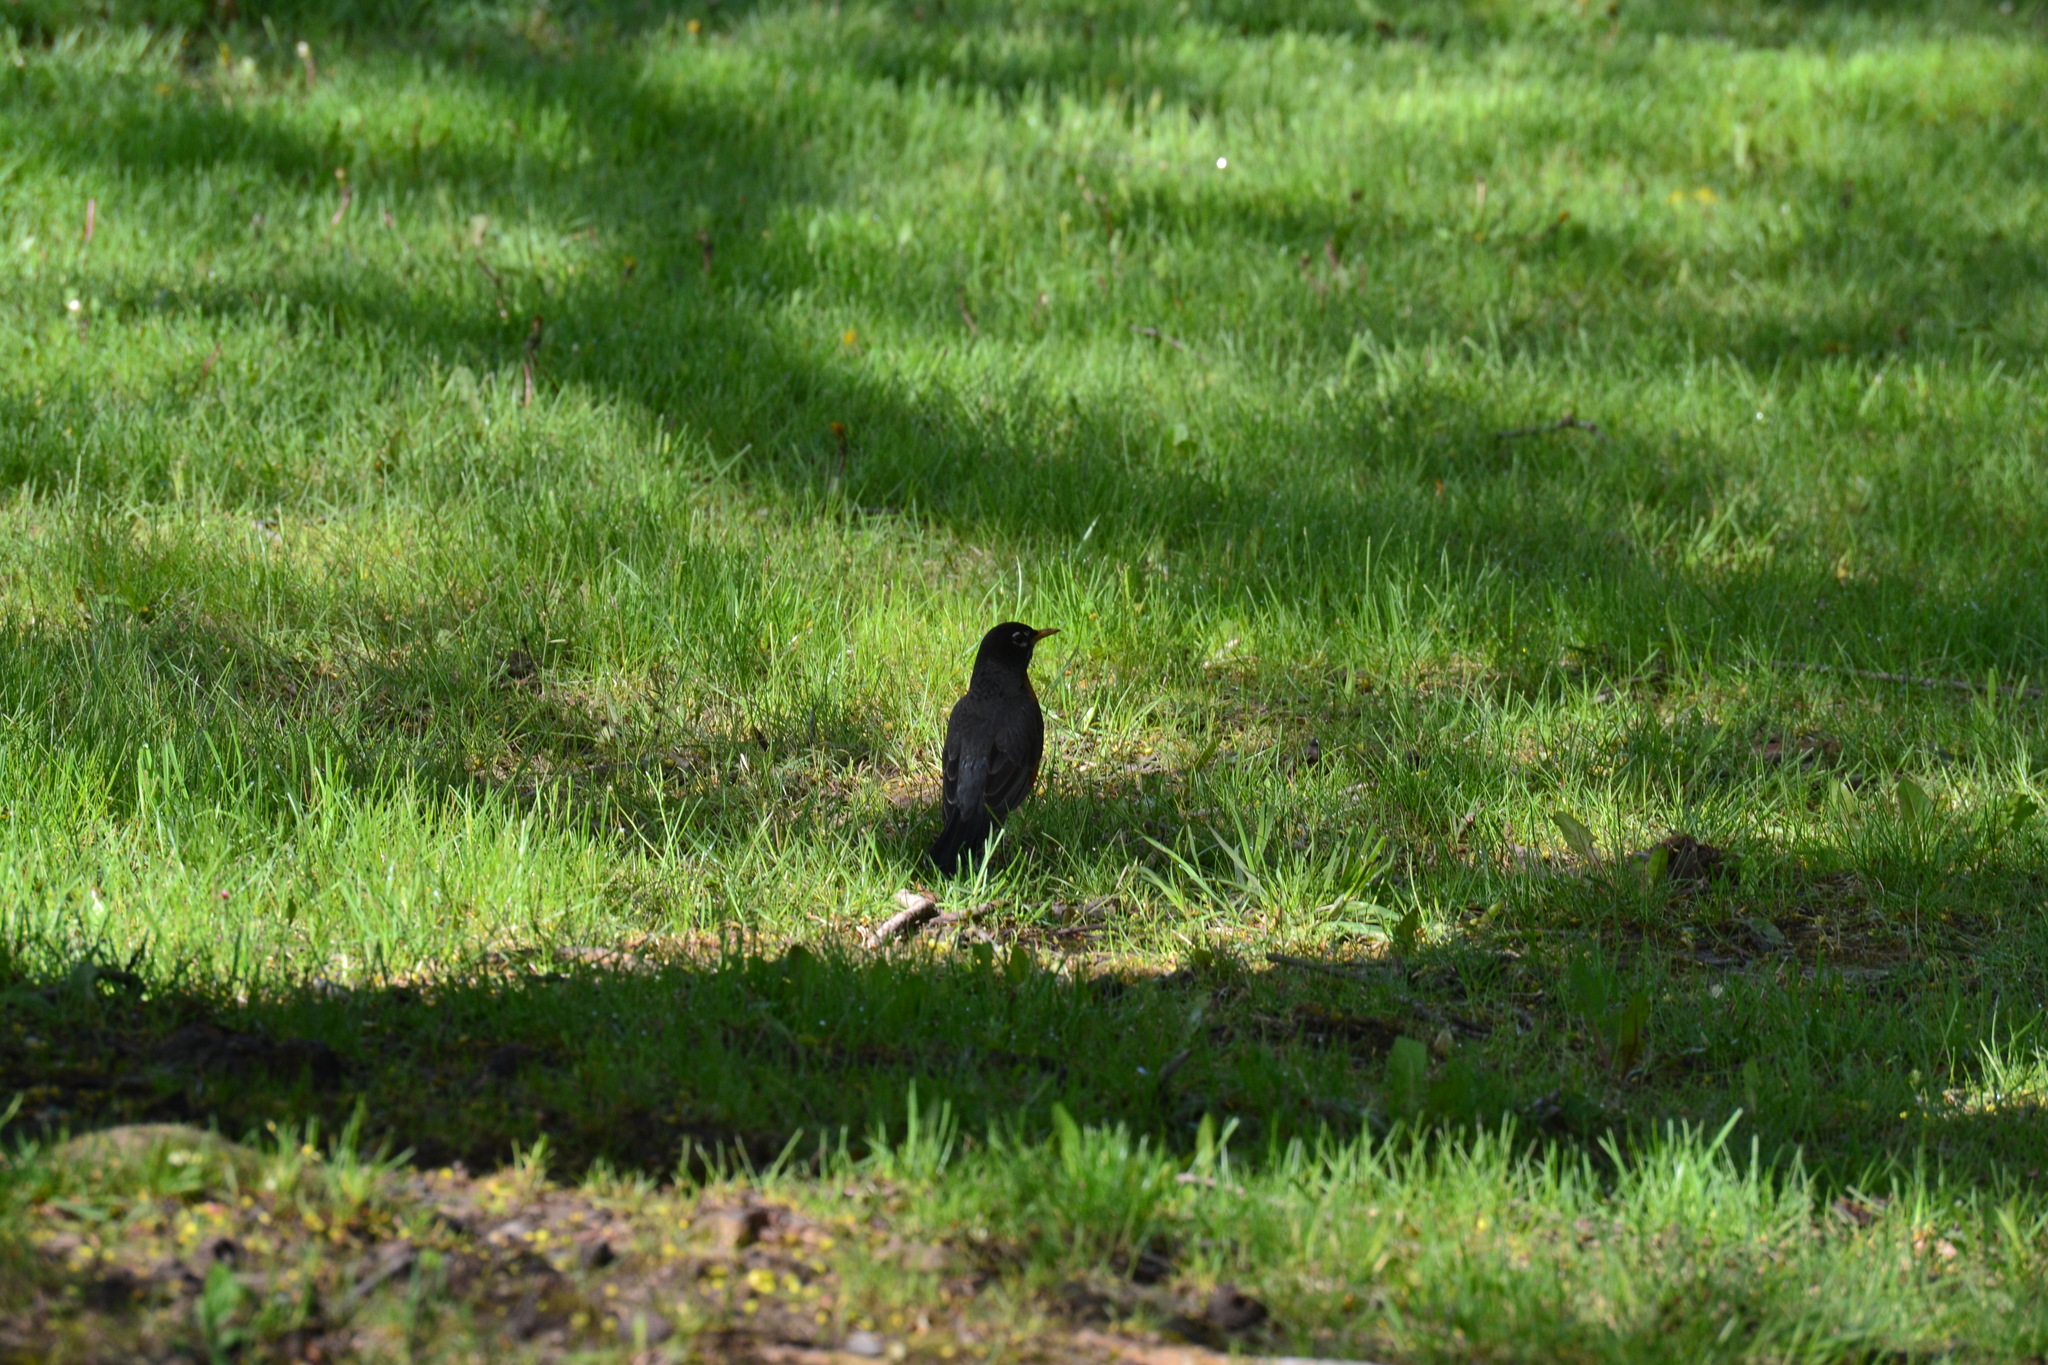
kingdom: Animalia
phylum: Chordata
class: Aves
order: Passeriformes
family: Turdidae
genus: Turdus
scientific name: Turdus migratorius
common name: American robin
